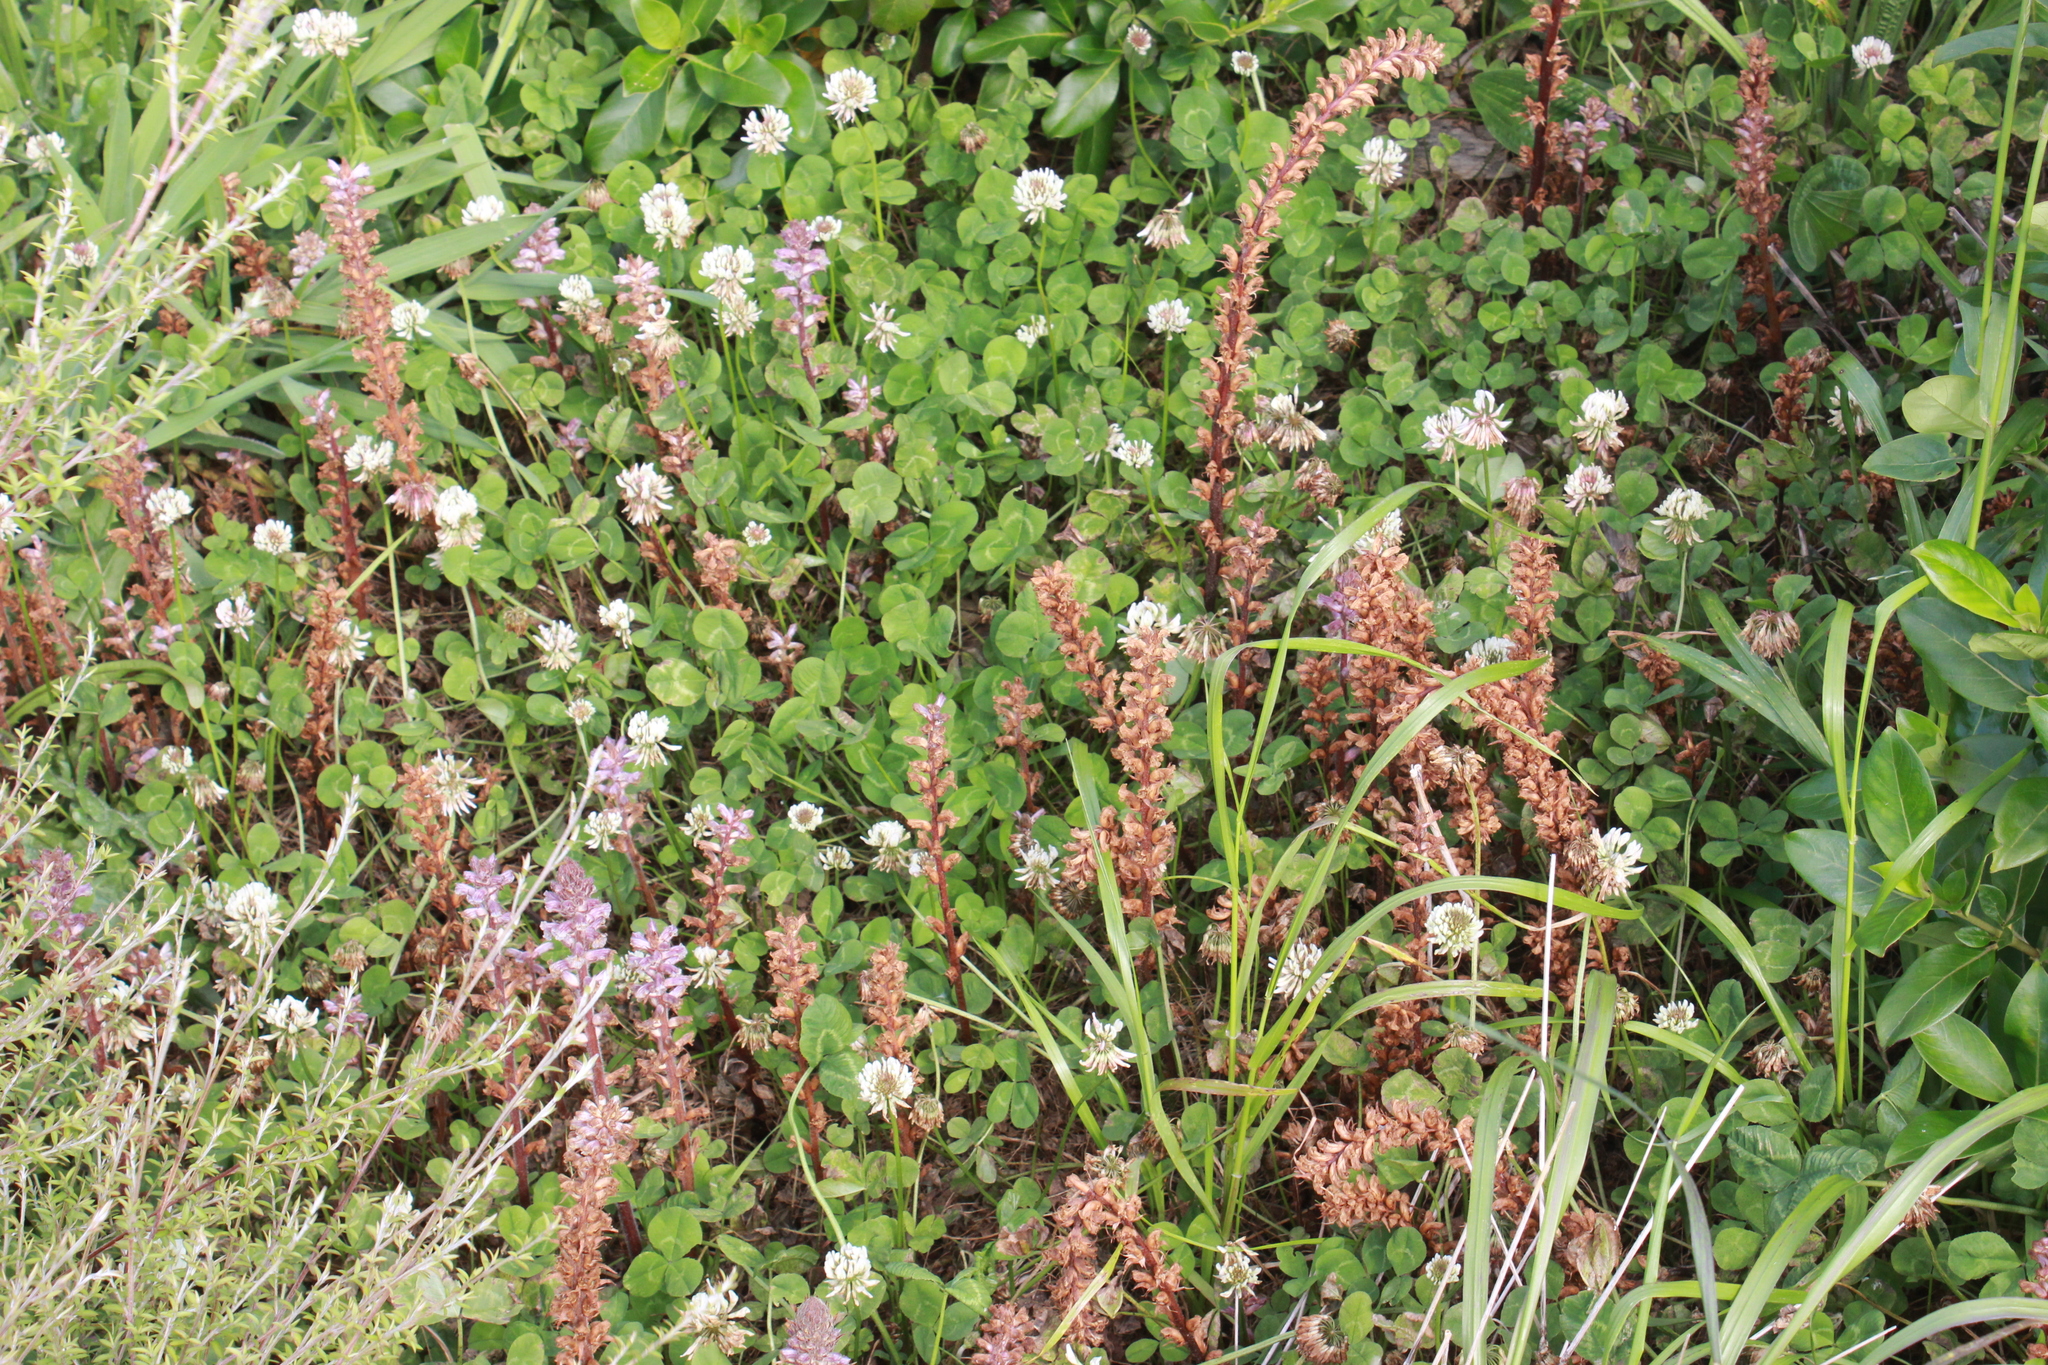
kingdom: Plantae
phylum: Tracheophyta
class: Magnoliopsida
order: Lamiales
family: Orobanchaceae
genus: Orobanche
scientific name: Orobanche minor
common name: Common broomrape
